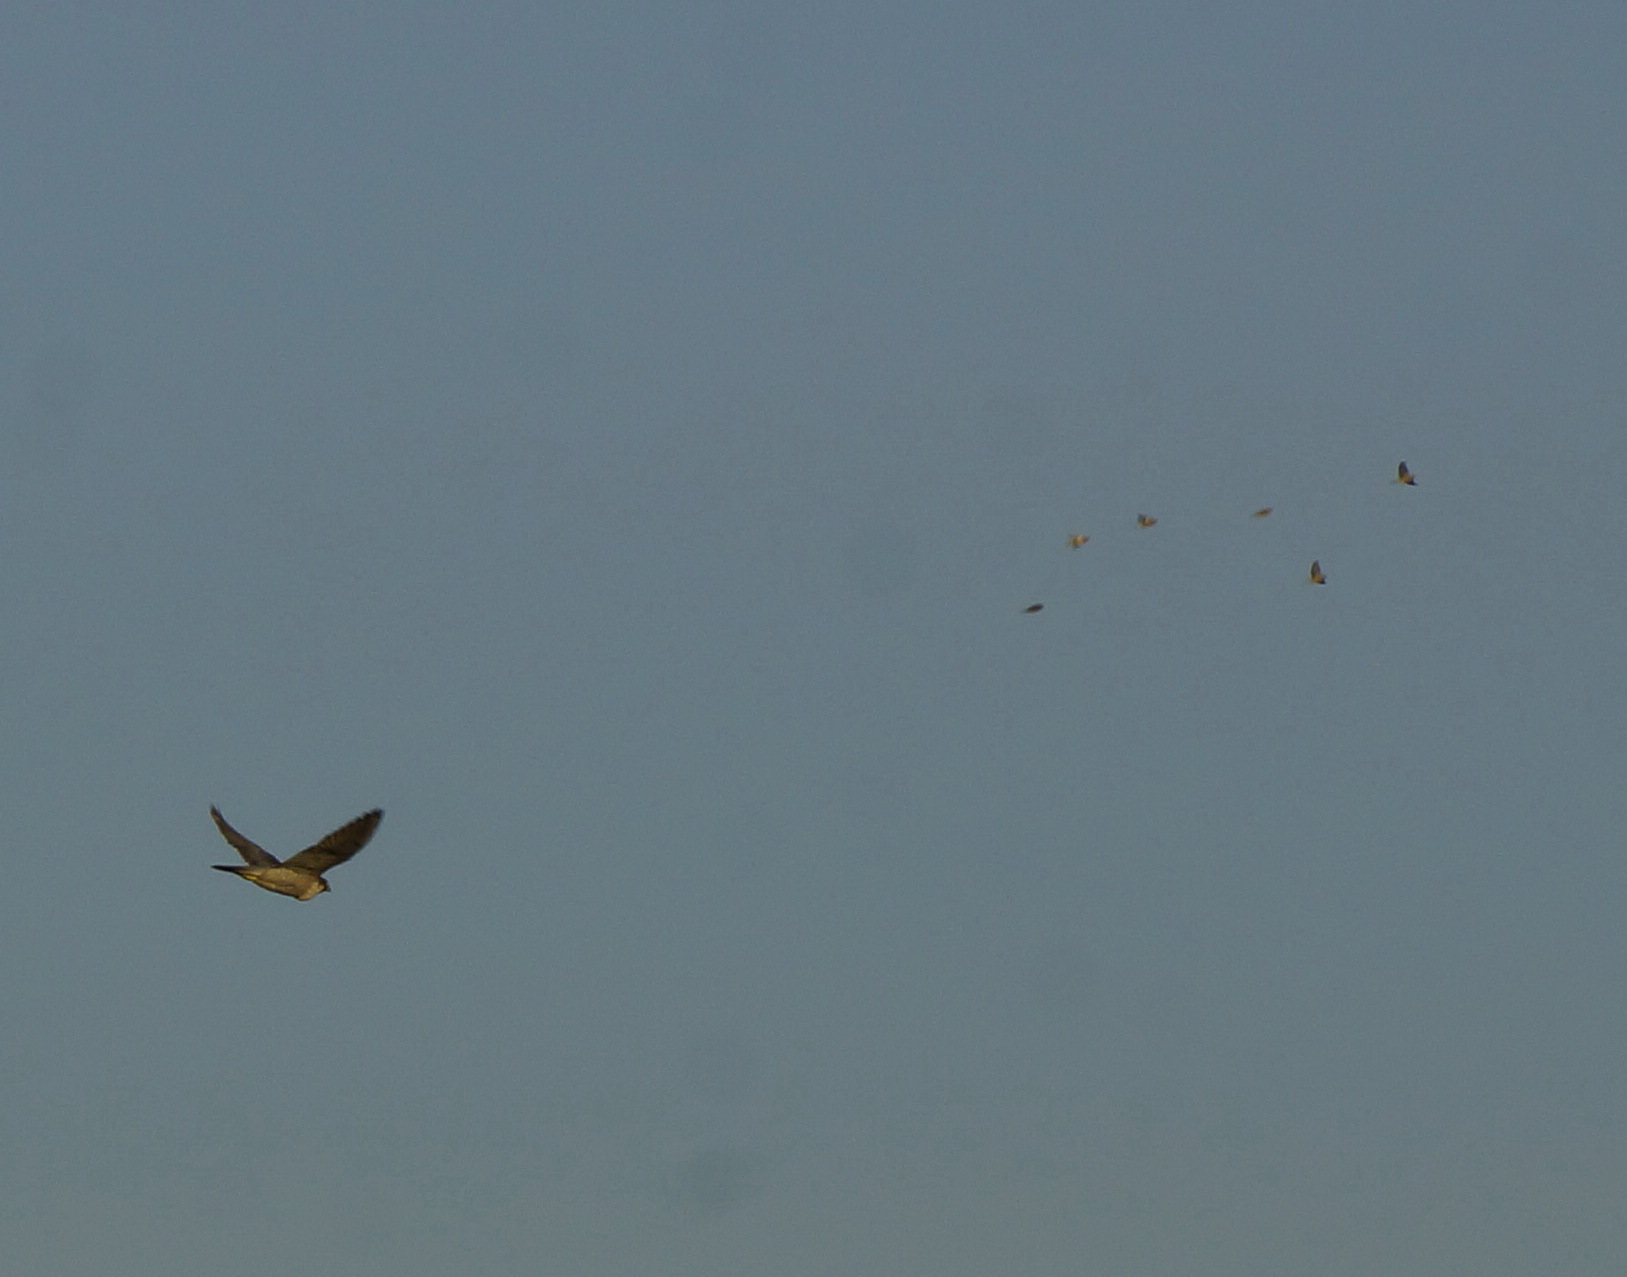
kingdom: Animalia
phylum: Chordata
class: Aves
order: Falconiformes
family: Falconidae
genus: Falco
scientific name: Falco peregrinus
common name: Peregrine falcon
